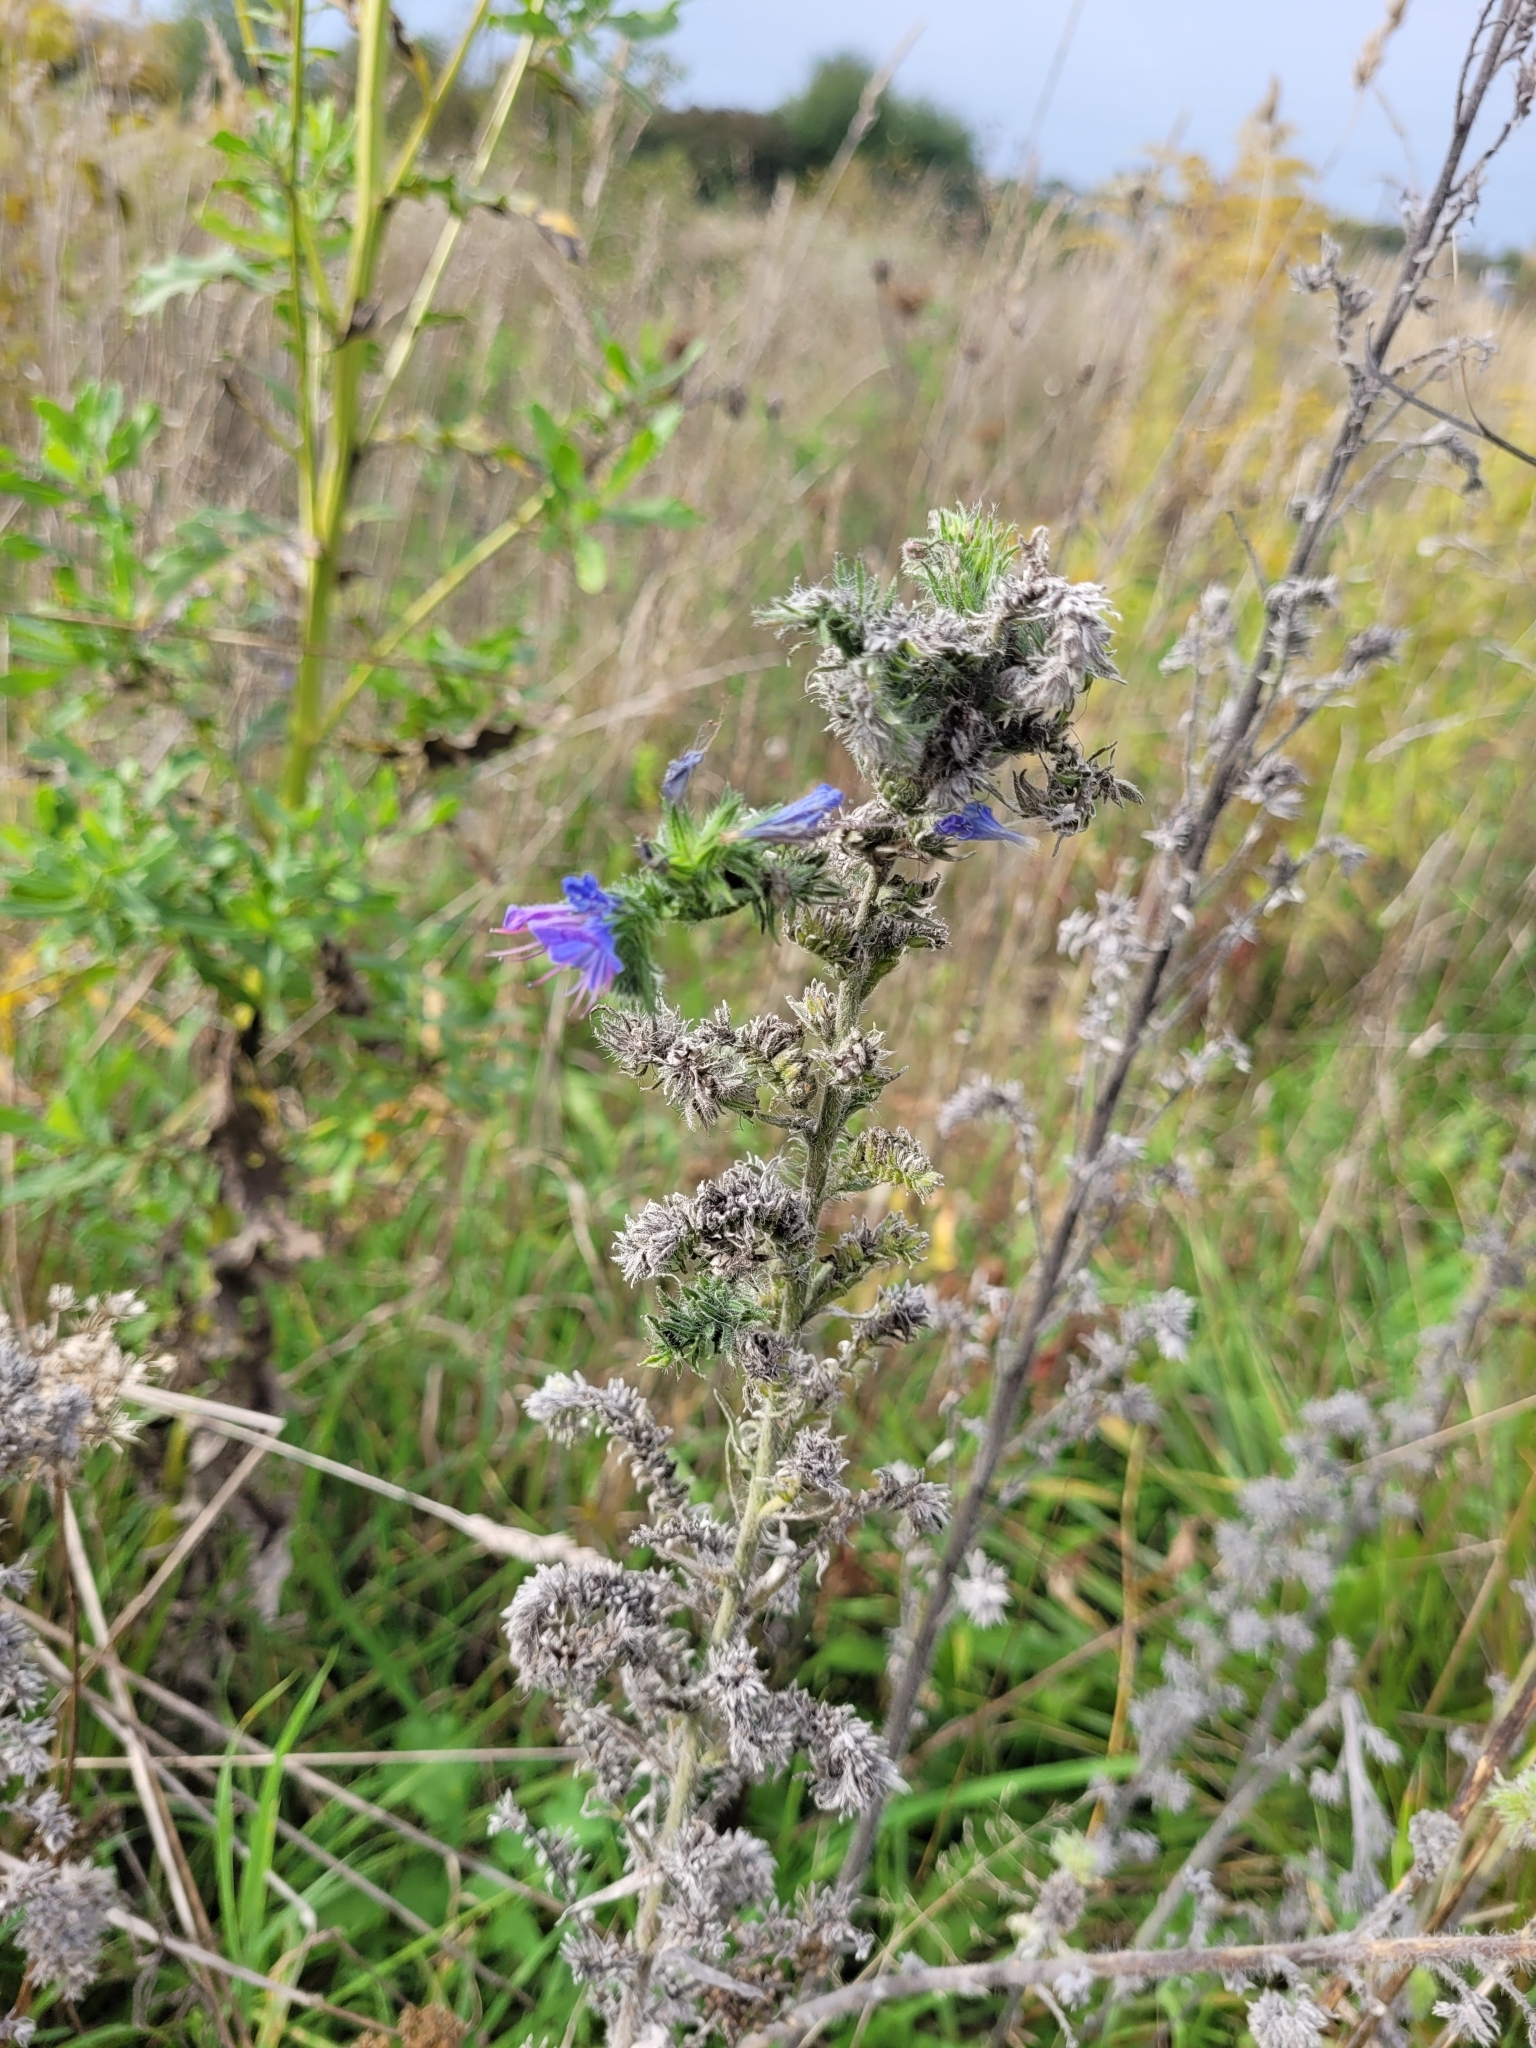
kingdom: Plantae
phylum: Tracheophyta
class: Magnoliopsida
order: Boraginales
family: Boraginaceae
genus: Echium
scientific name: Echium vulgare
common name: Common viper's bugloss
